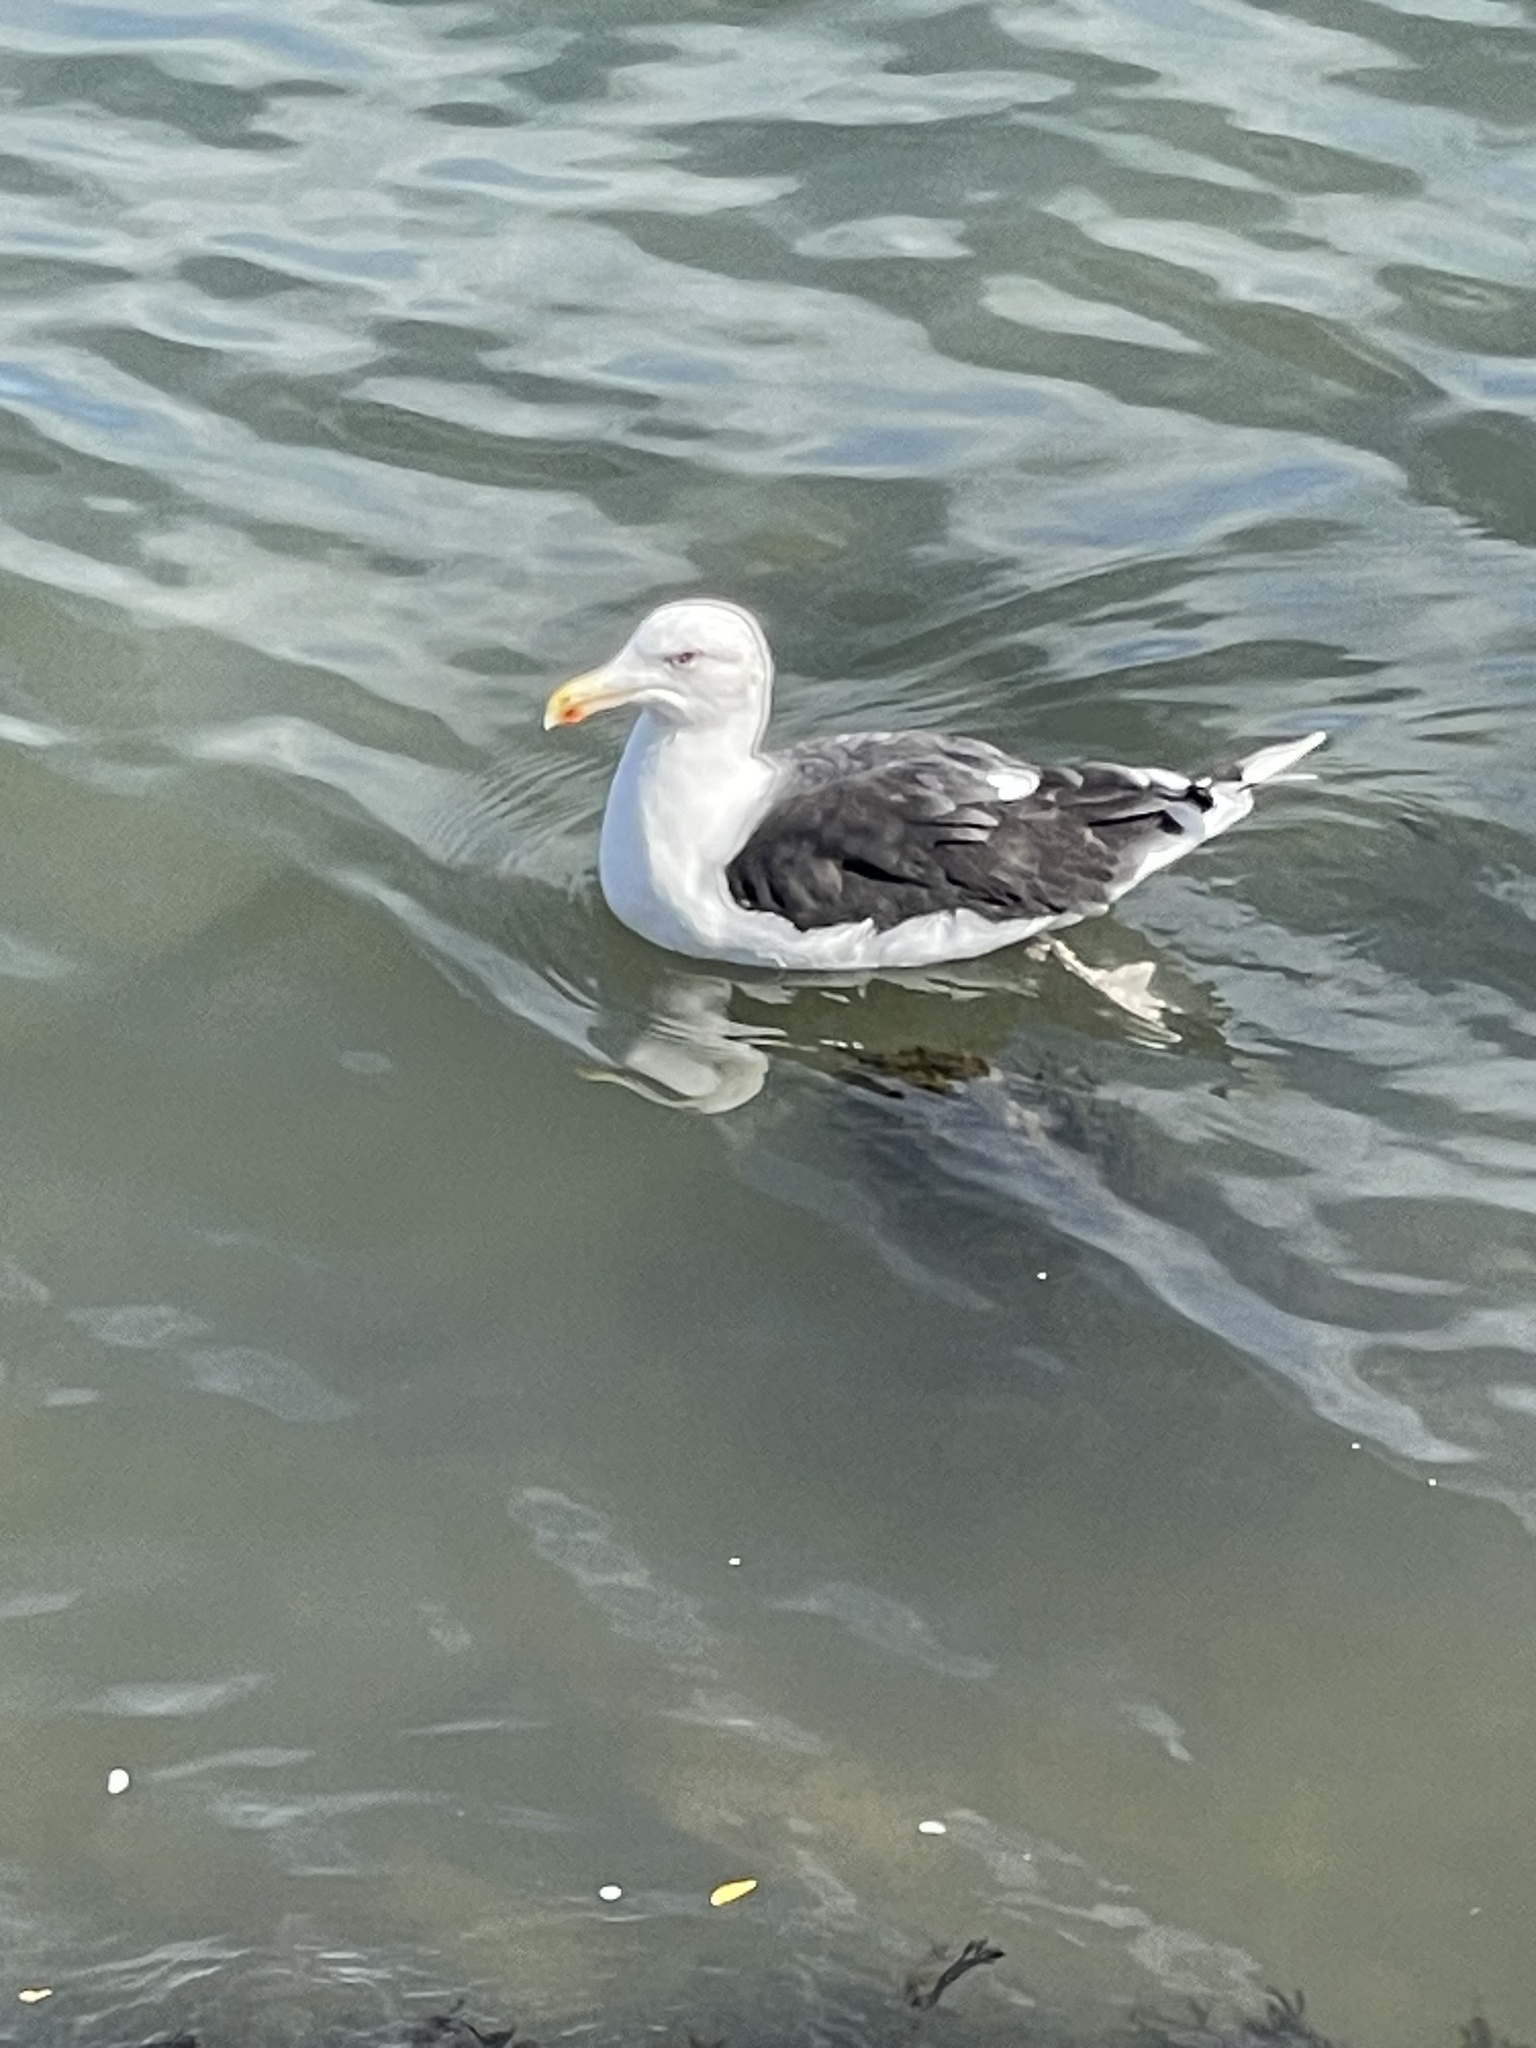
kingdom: Animalia
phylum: Chordata
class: Aves
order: Charadriiformes
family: Laridae
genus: Larus
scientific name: Larus marinus
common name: Great black-backed gull
